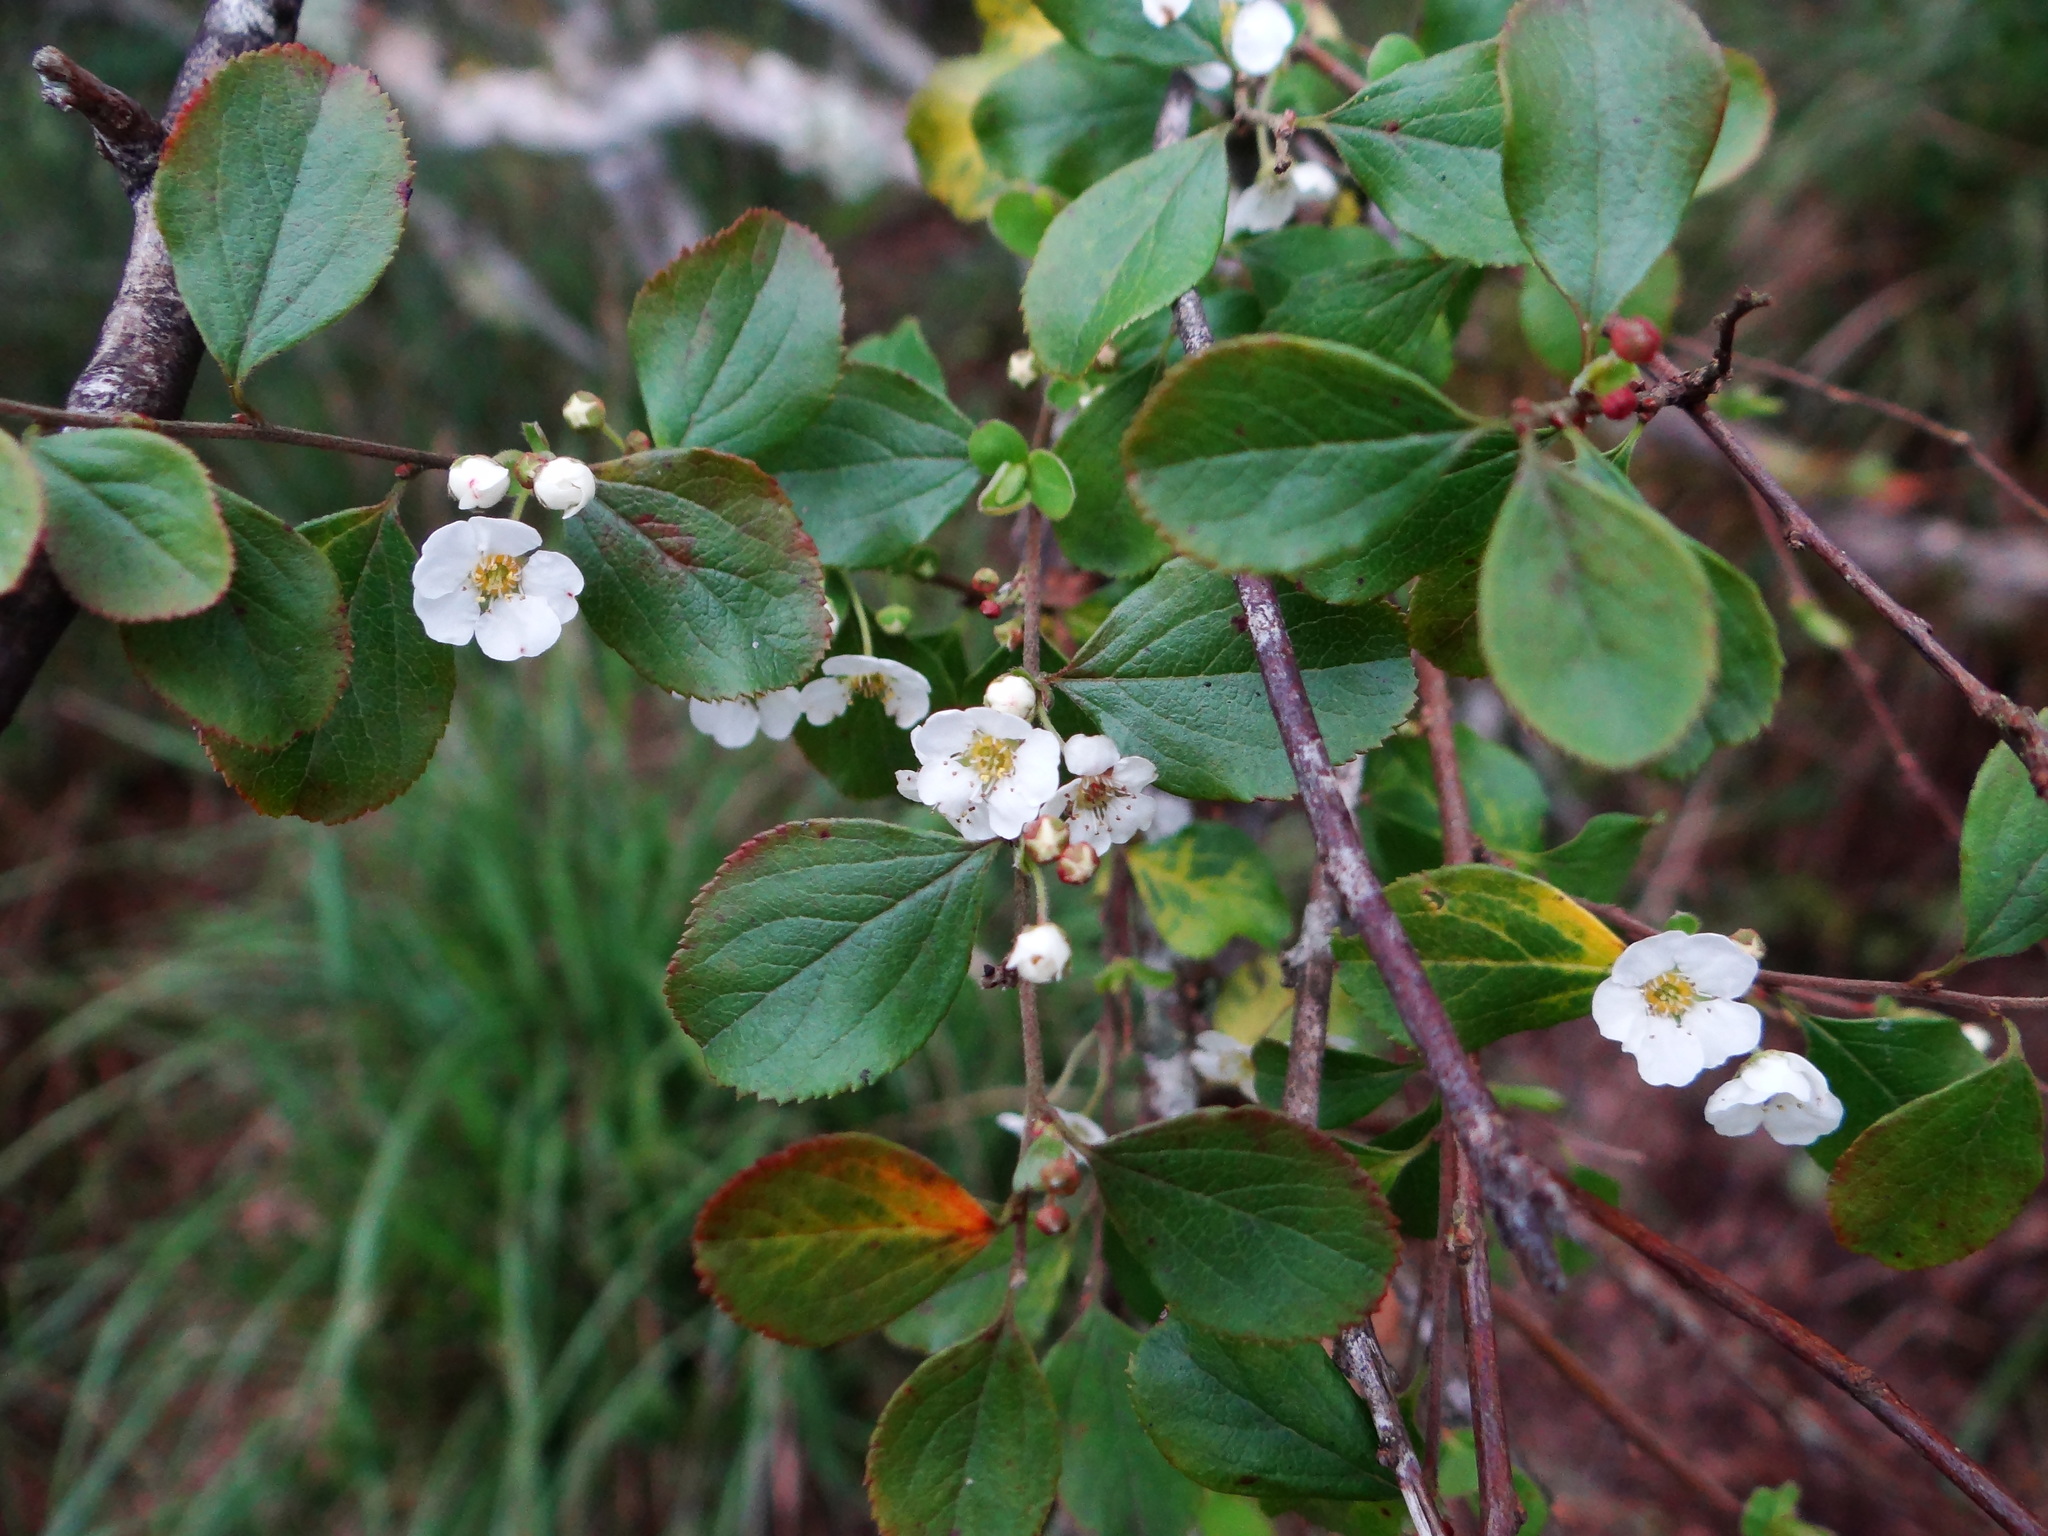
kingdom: Plantae
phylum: Tracheophyta
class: Magnoliopsida
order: Rosales
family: Rosaceae
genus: Spiraea
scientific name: Spiraea prunifolia
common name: Bridal-wreath spiraea
